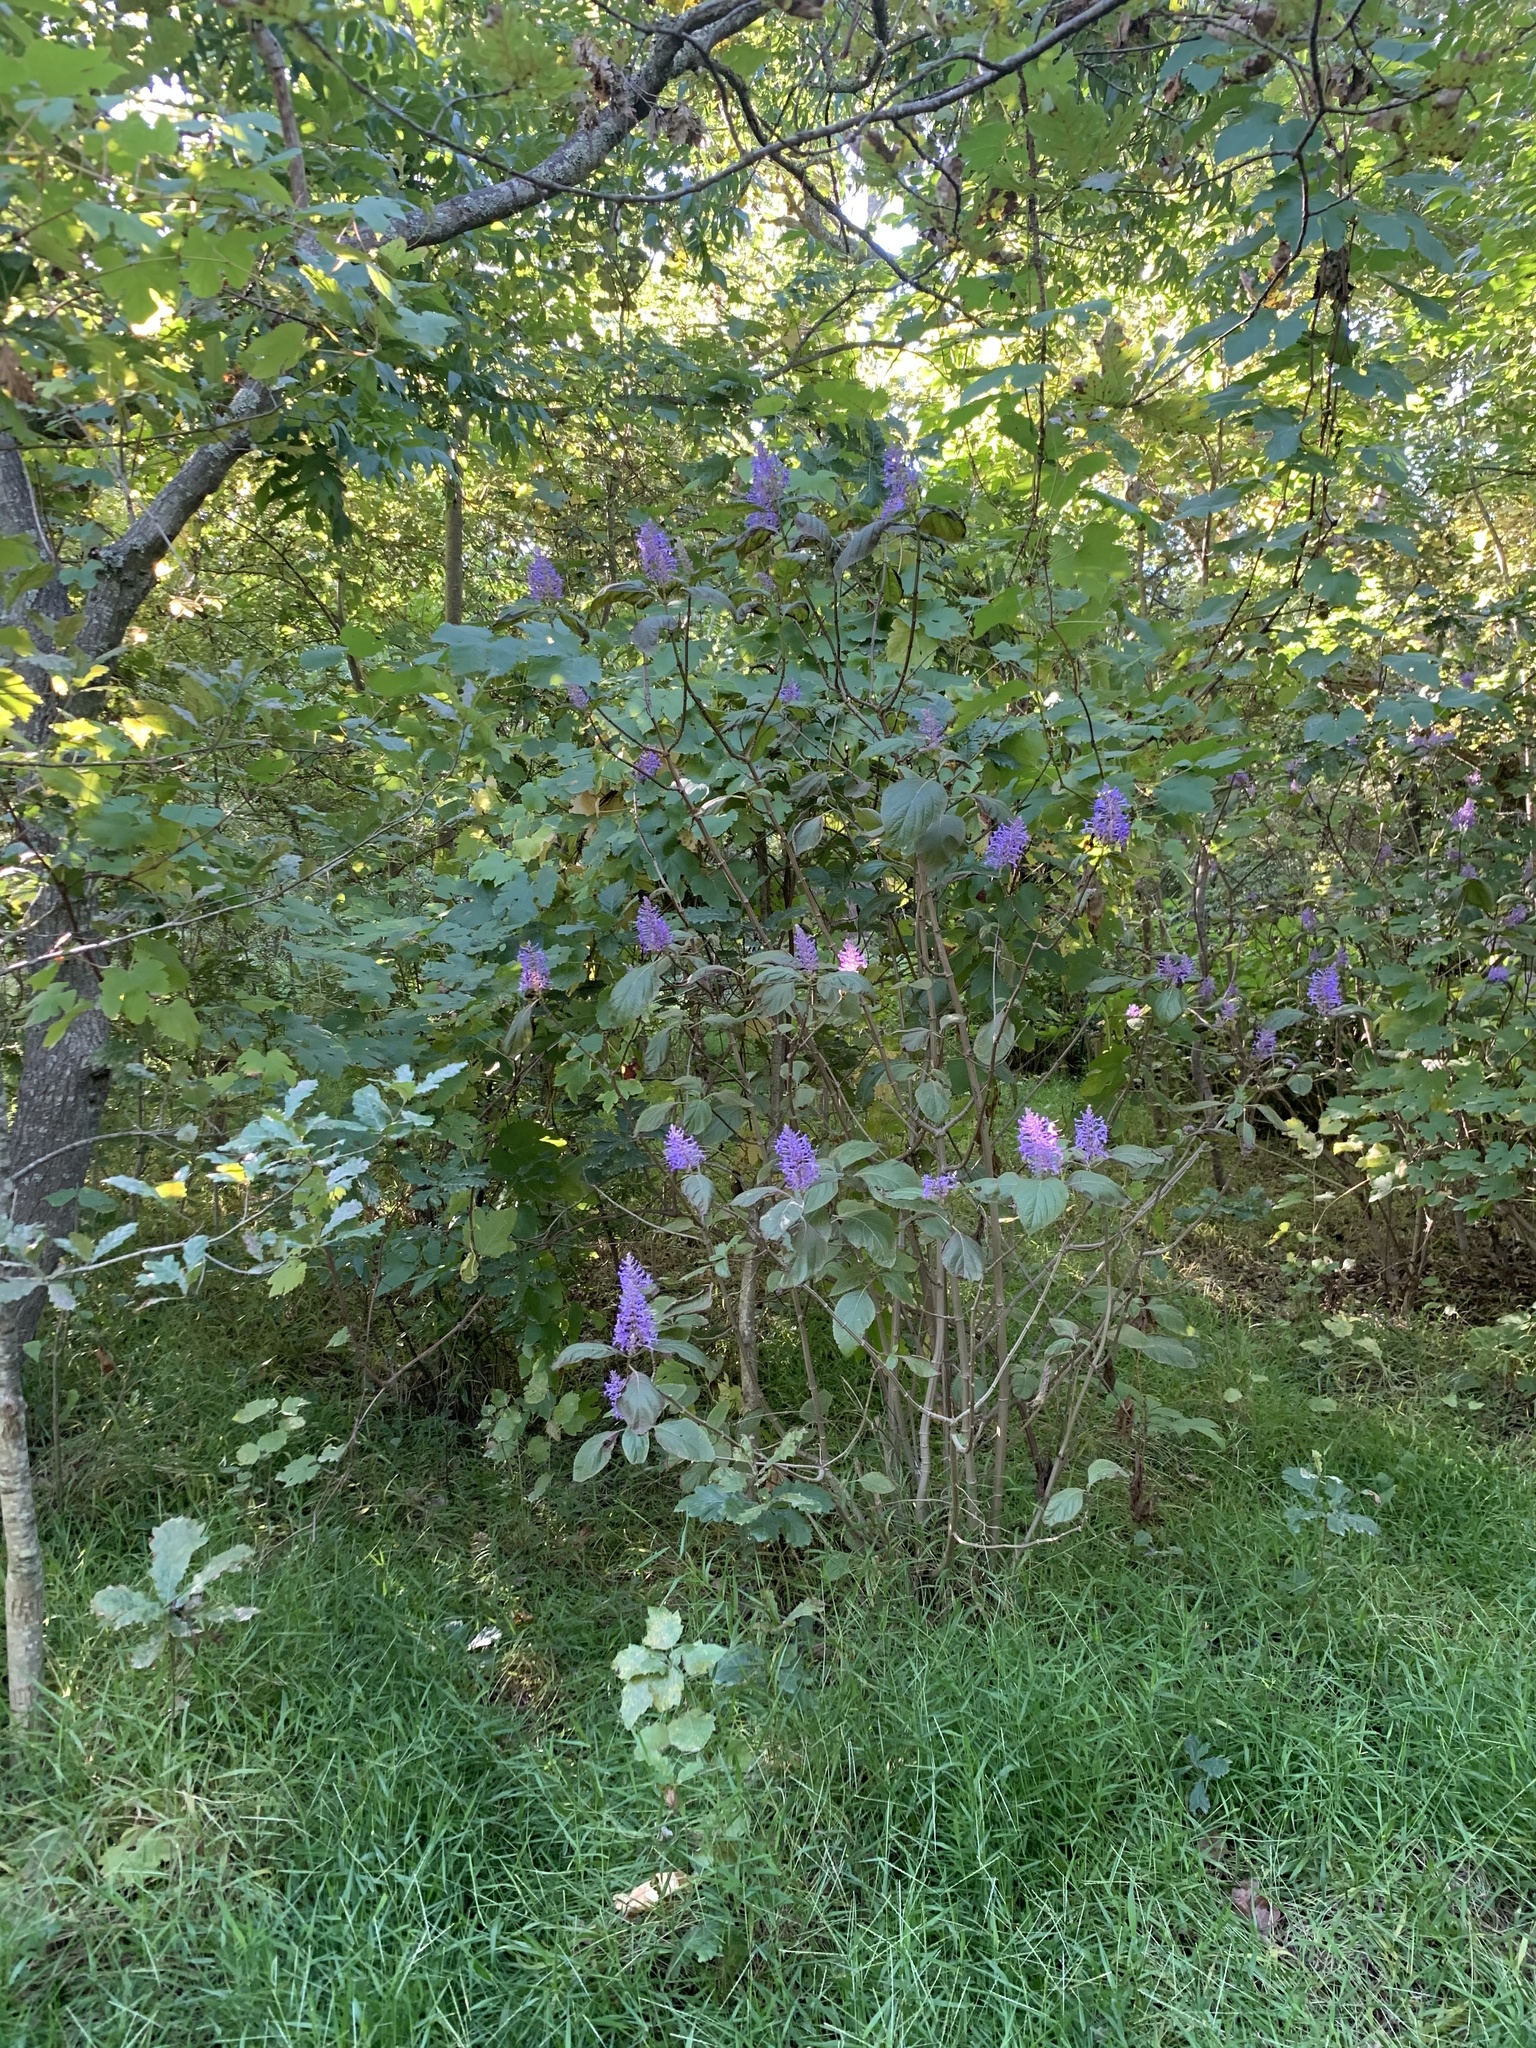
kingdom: Plantae
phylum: Tracheophyta
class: Magnoliopsida
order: Lamiales
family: Lamiaceae
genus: Plectranthus
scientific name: Plectranthus ecklonii
